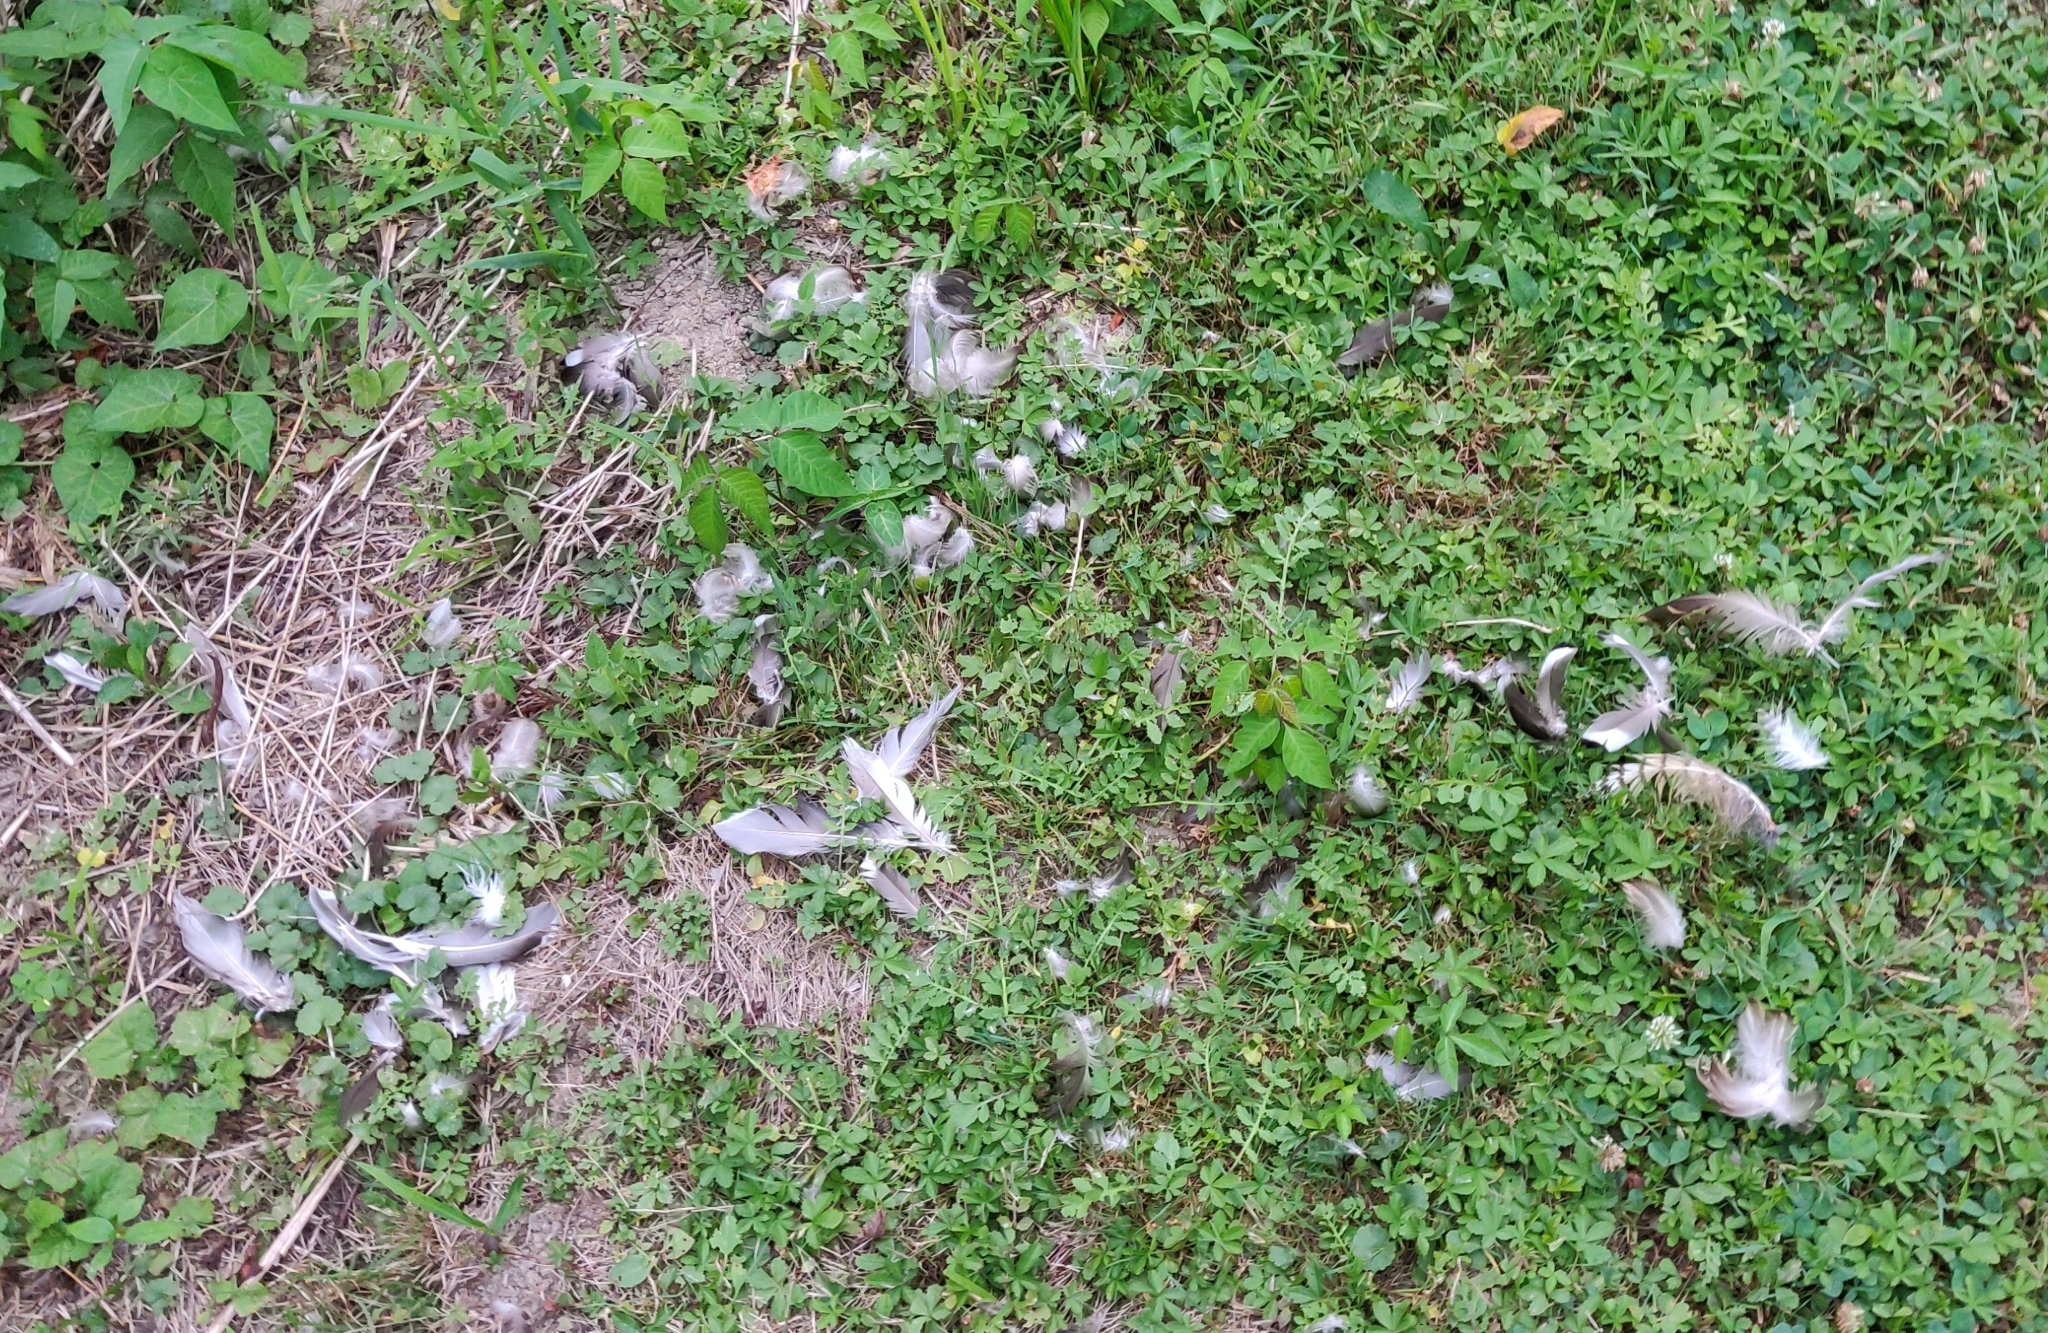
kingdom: Animalia
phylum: Chordata
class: Aves
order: Anseriformes
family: Anatidae
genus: Anas
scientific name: Anas platyrhynchos
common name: Mallard
